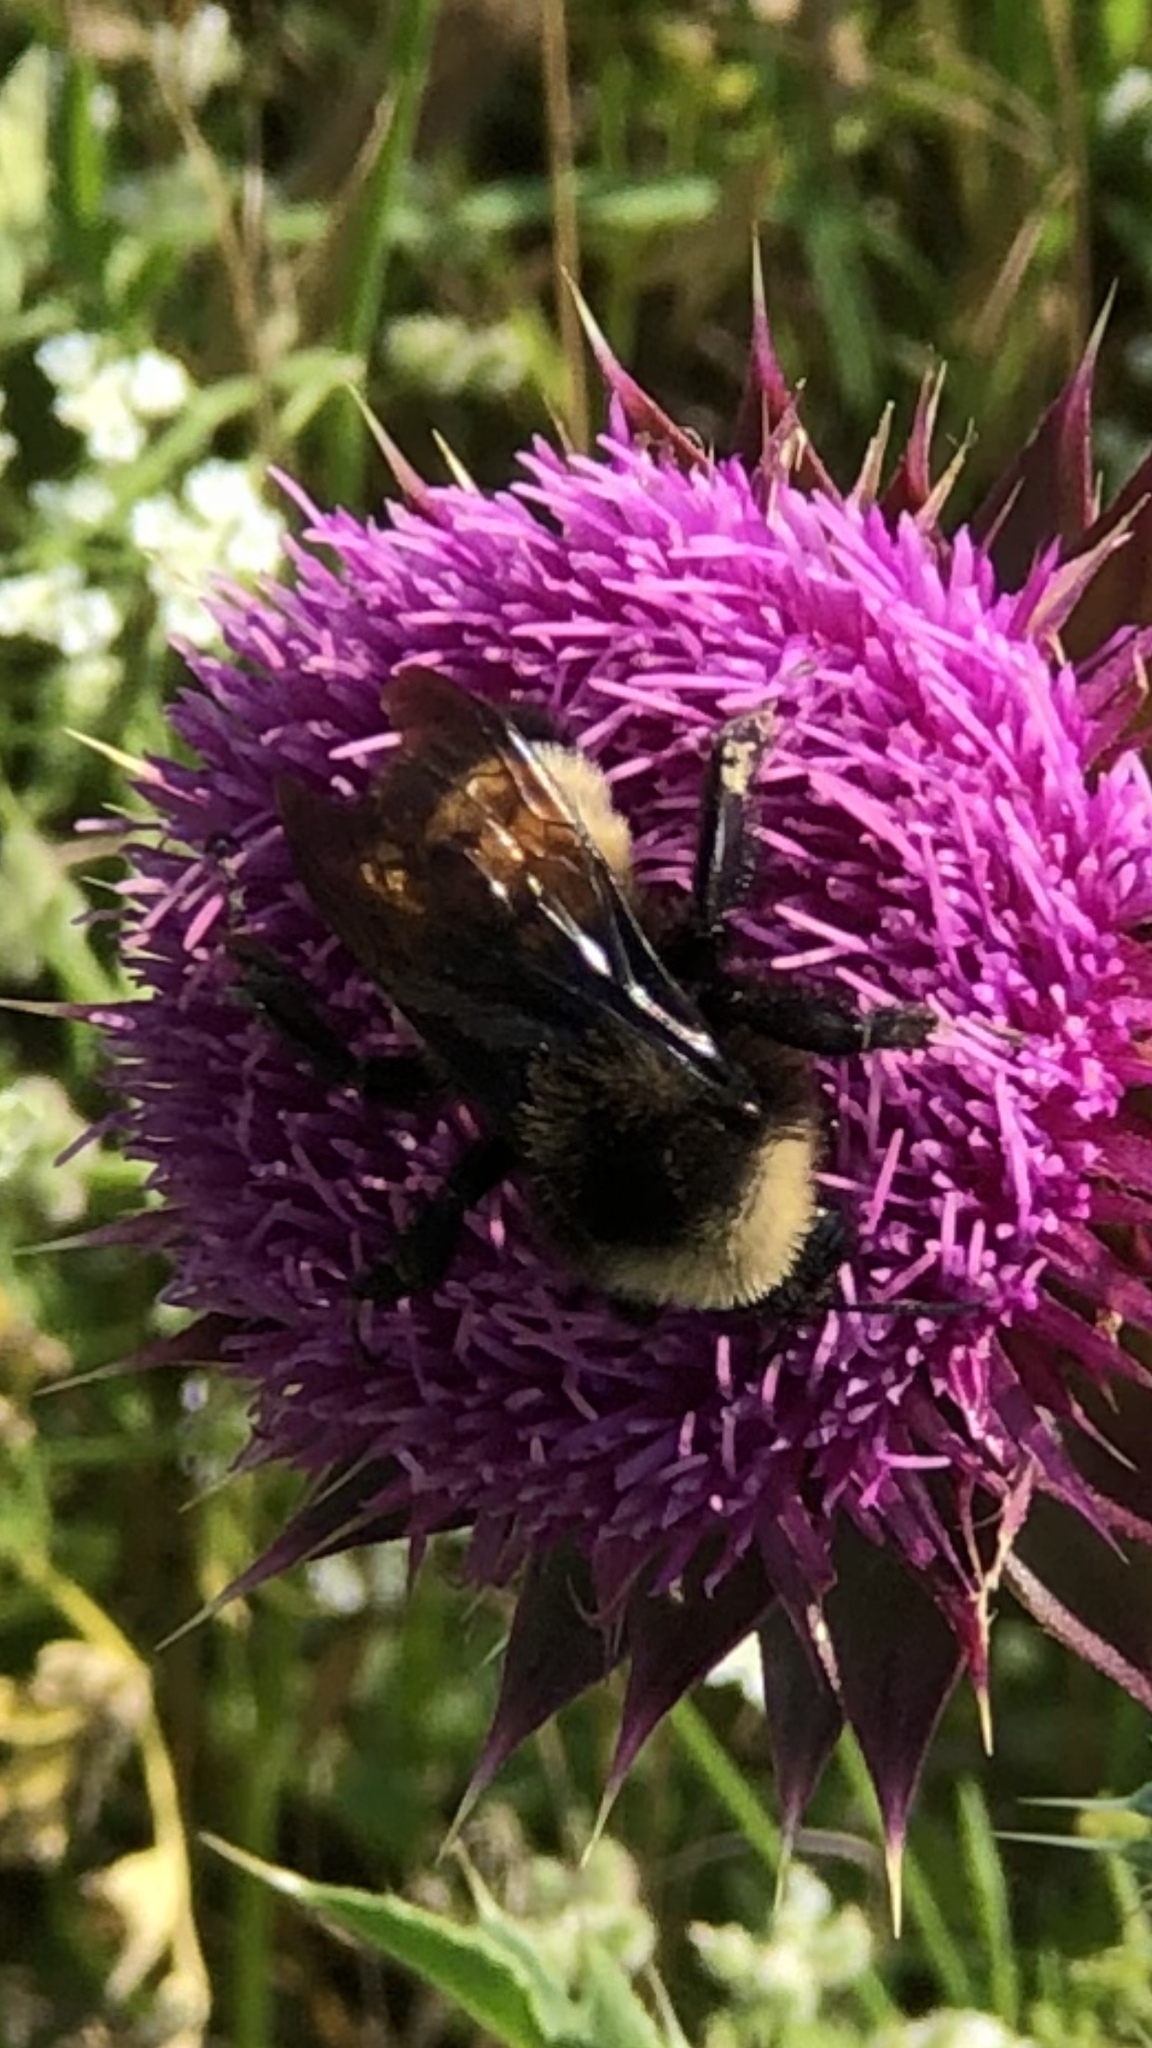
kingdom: Animalia
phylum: Arthropoda
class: Insecta
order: Hymenoptera
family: Apidae
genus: Bombus
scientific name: Bombus pensylvanicus
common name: Bumble bee
